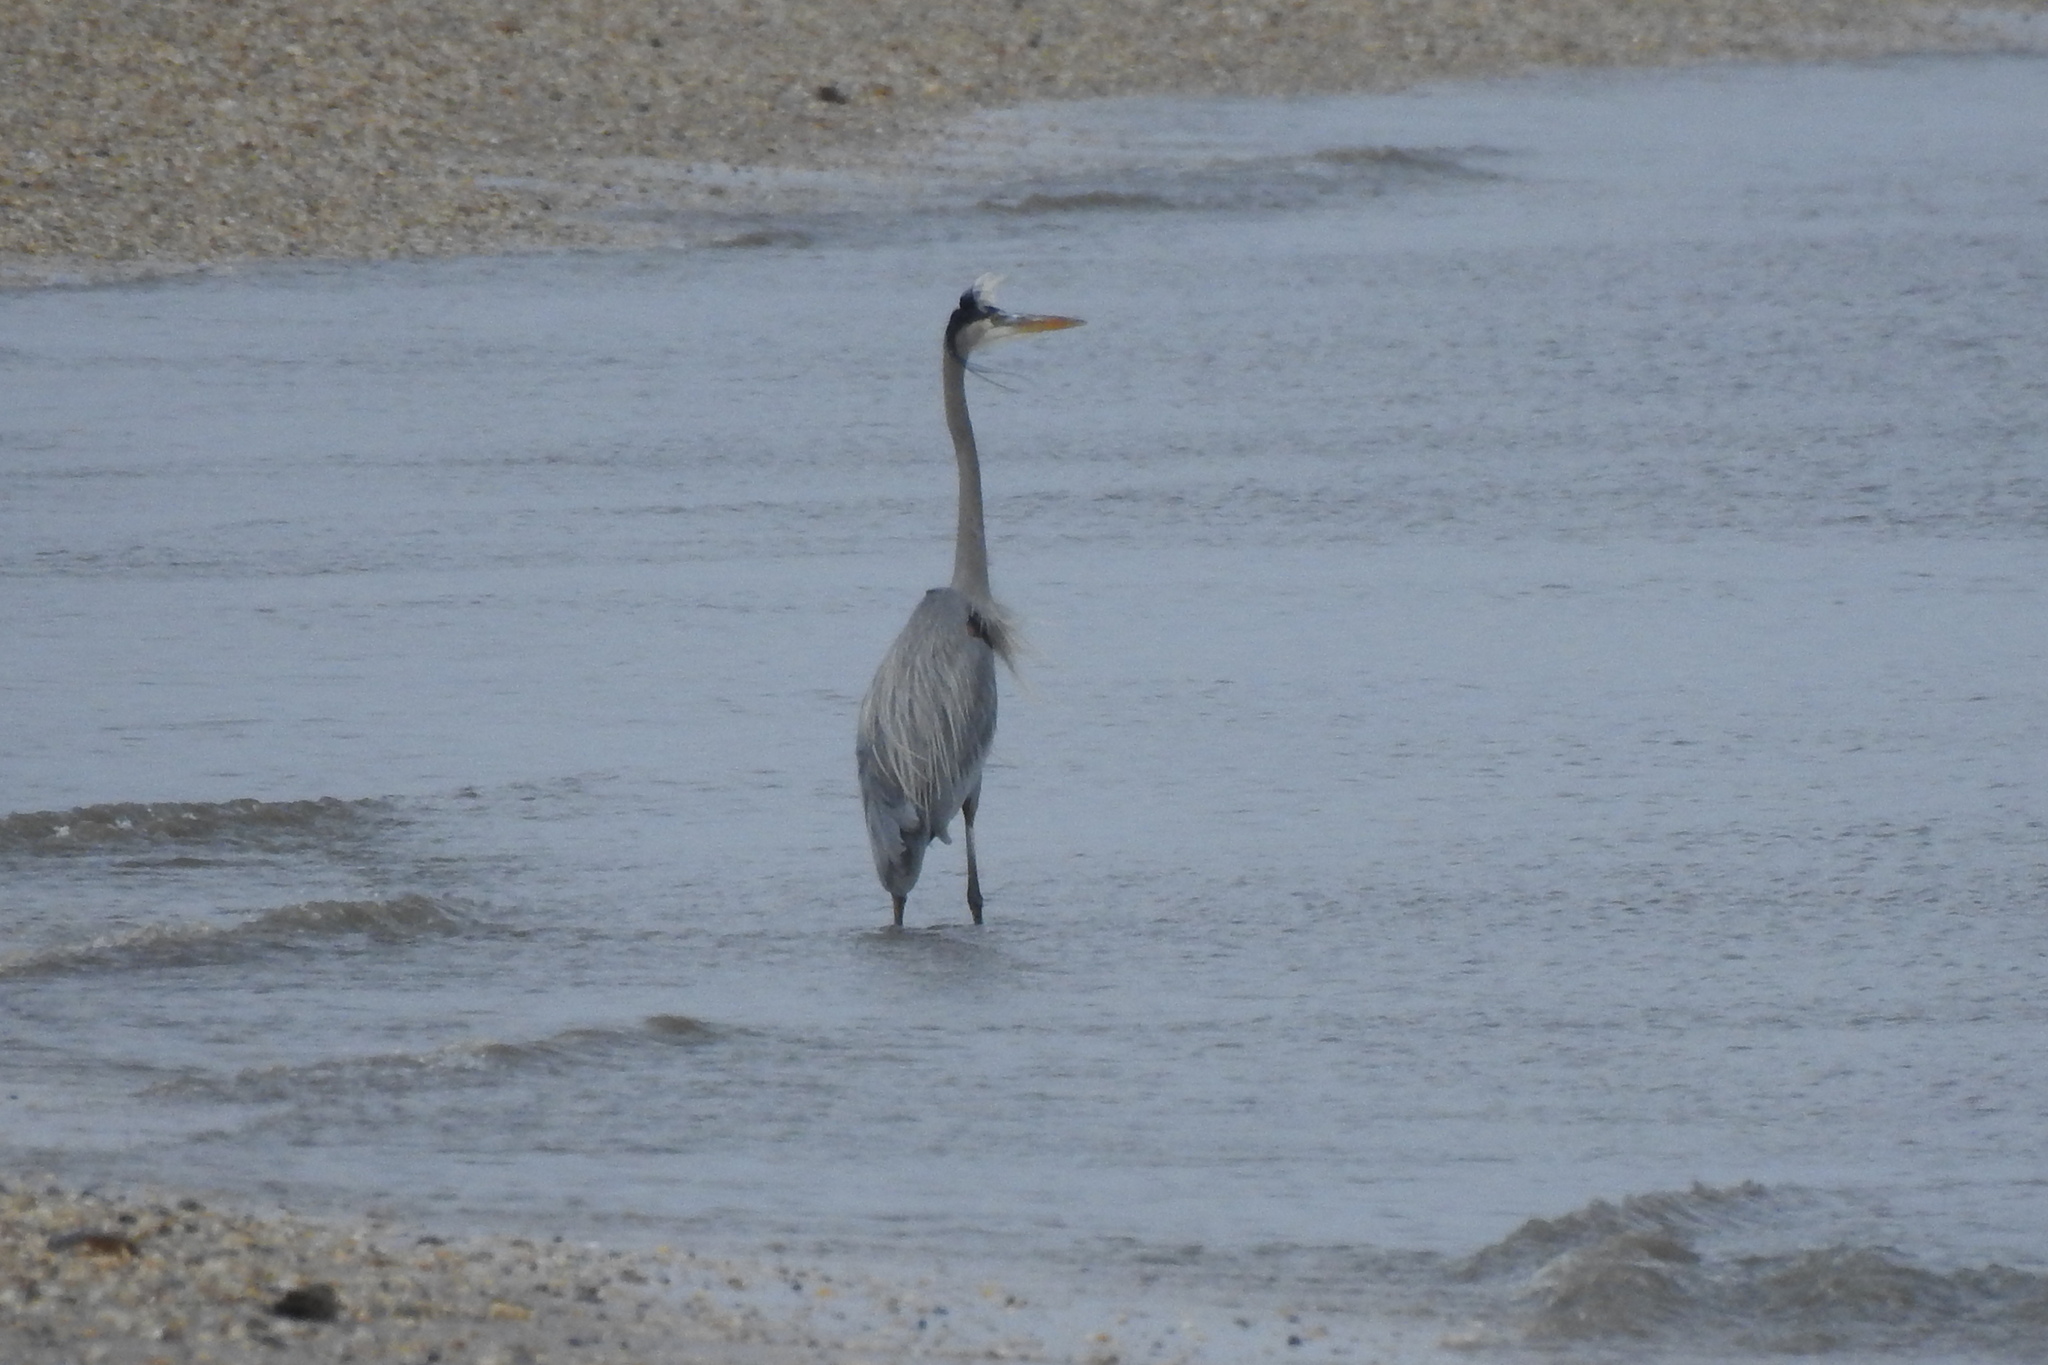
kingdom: Animalia
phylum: Chordata
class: Aves
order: Pelecaniformes
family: Ardeidae
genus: Ardea
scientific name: Ardea herodias
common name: Great blue heron
